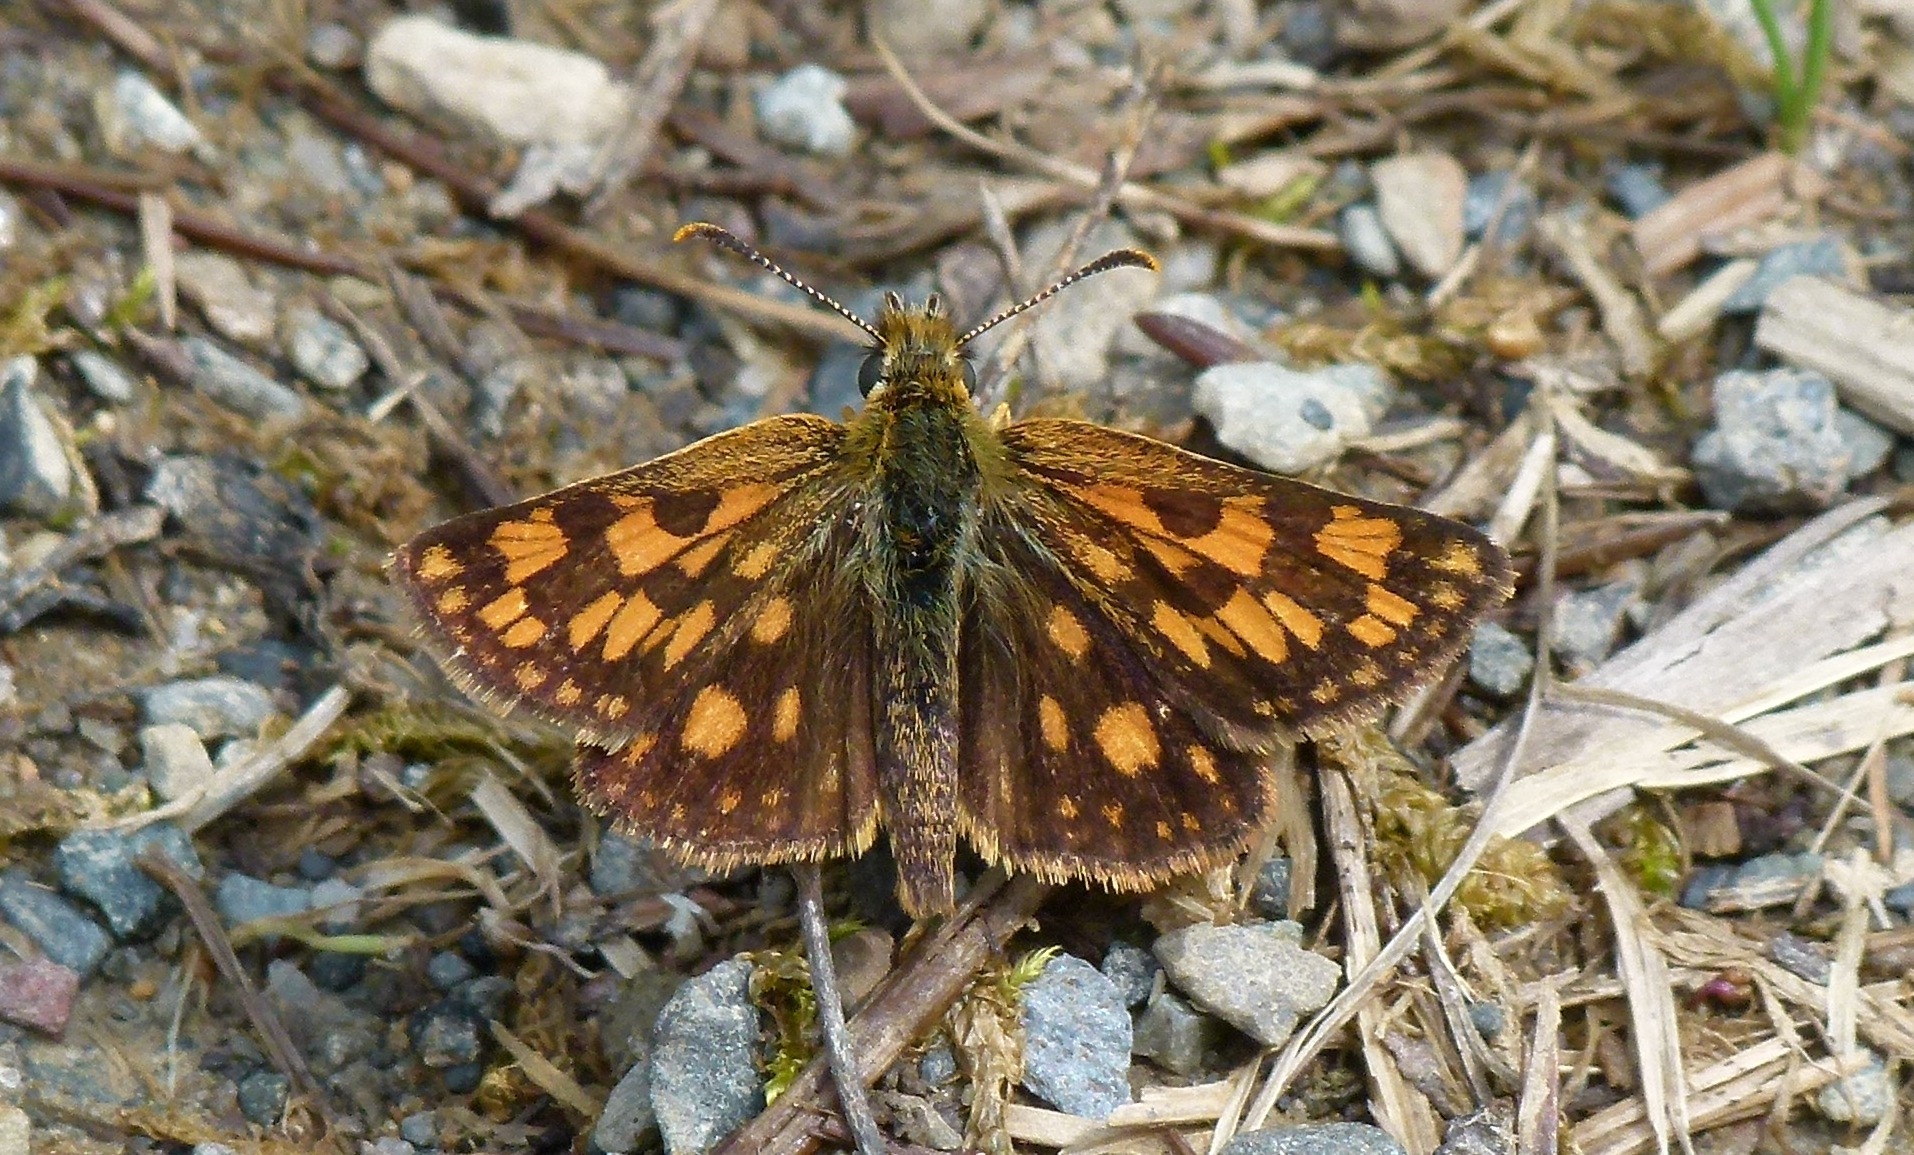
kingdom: Animalia
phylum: Arthropoda
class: Insecta
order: Lepidoptera
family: Hesperiidae
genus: Carterocephalus
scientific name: Carterocephalus mandan
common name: Arctic skipperling
